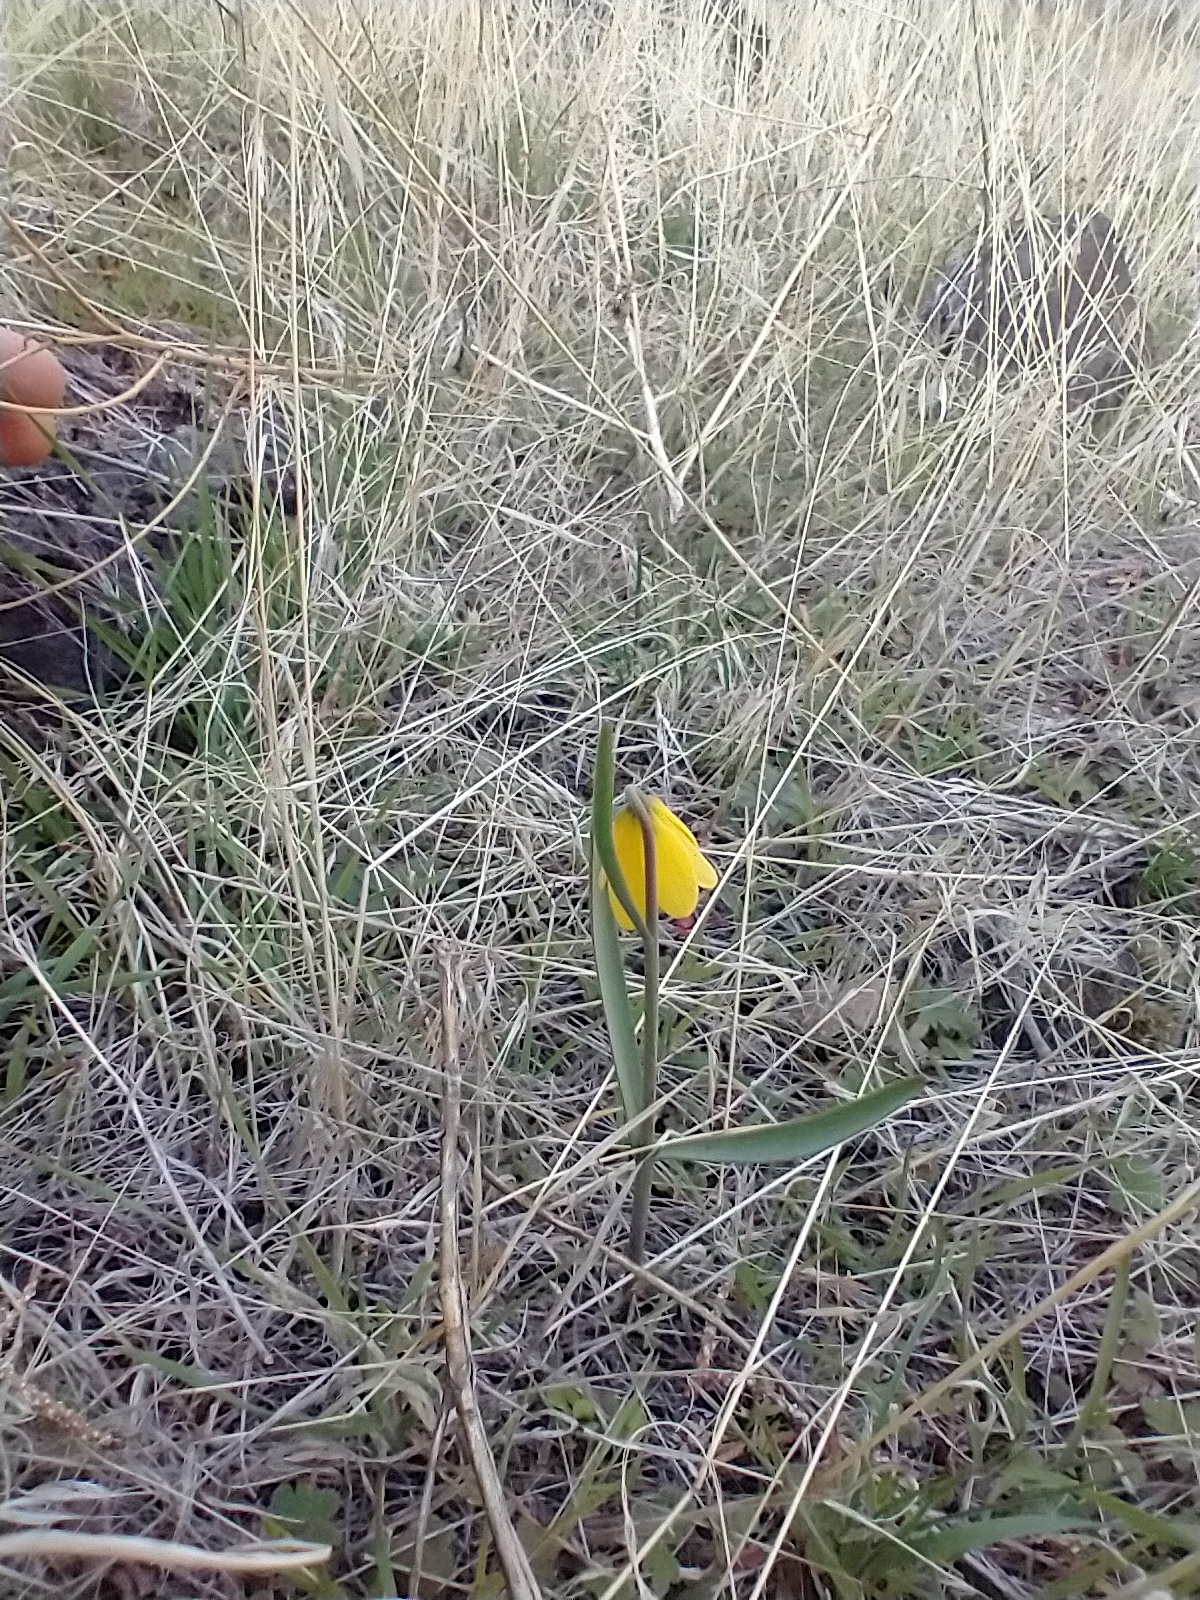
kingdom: Plantae
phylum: Tracheophyta
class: Liliopsida
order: Liliales
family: Liliaceae
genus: Fritillaria
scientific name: Fritillaria pudica
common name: Yellow fritillary
